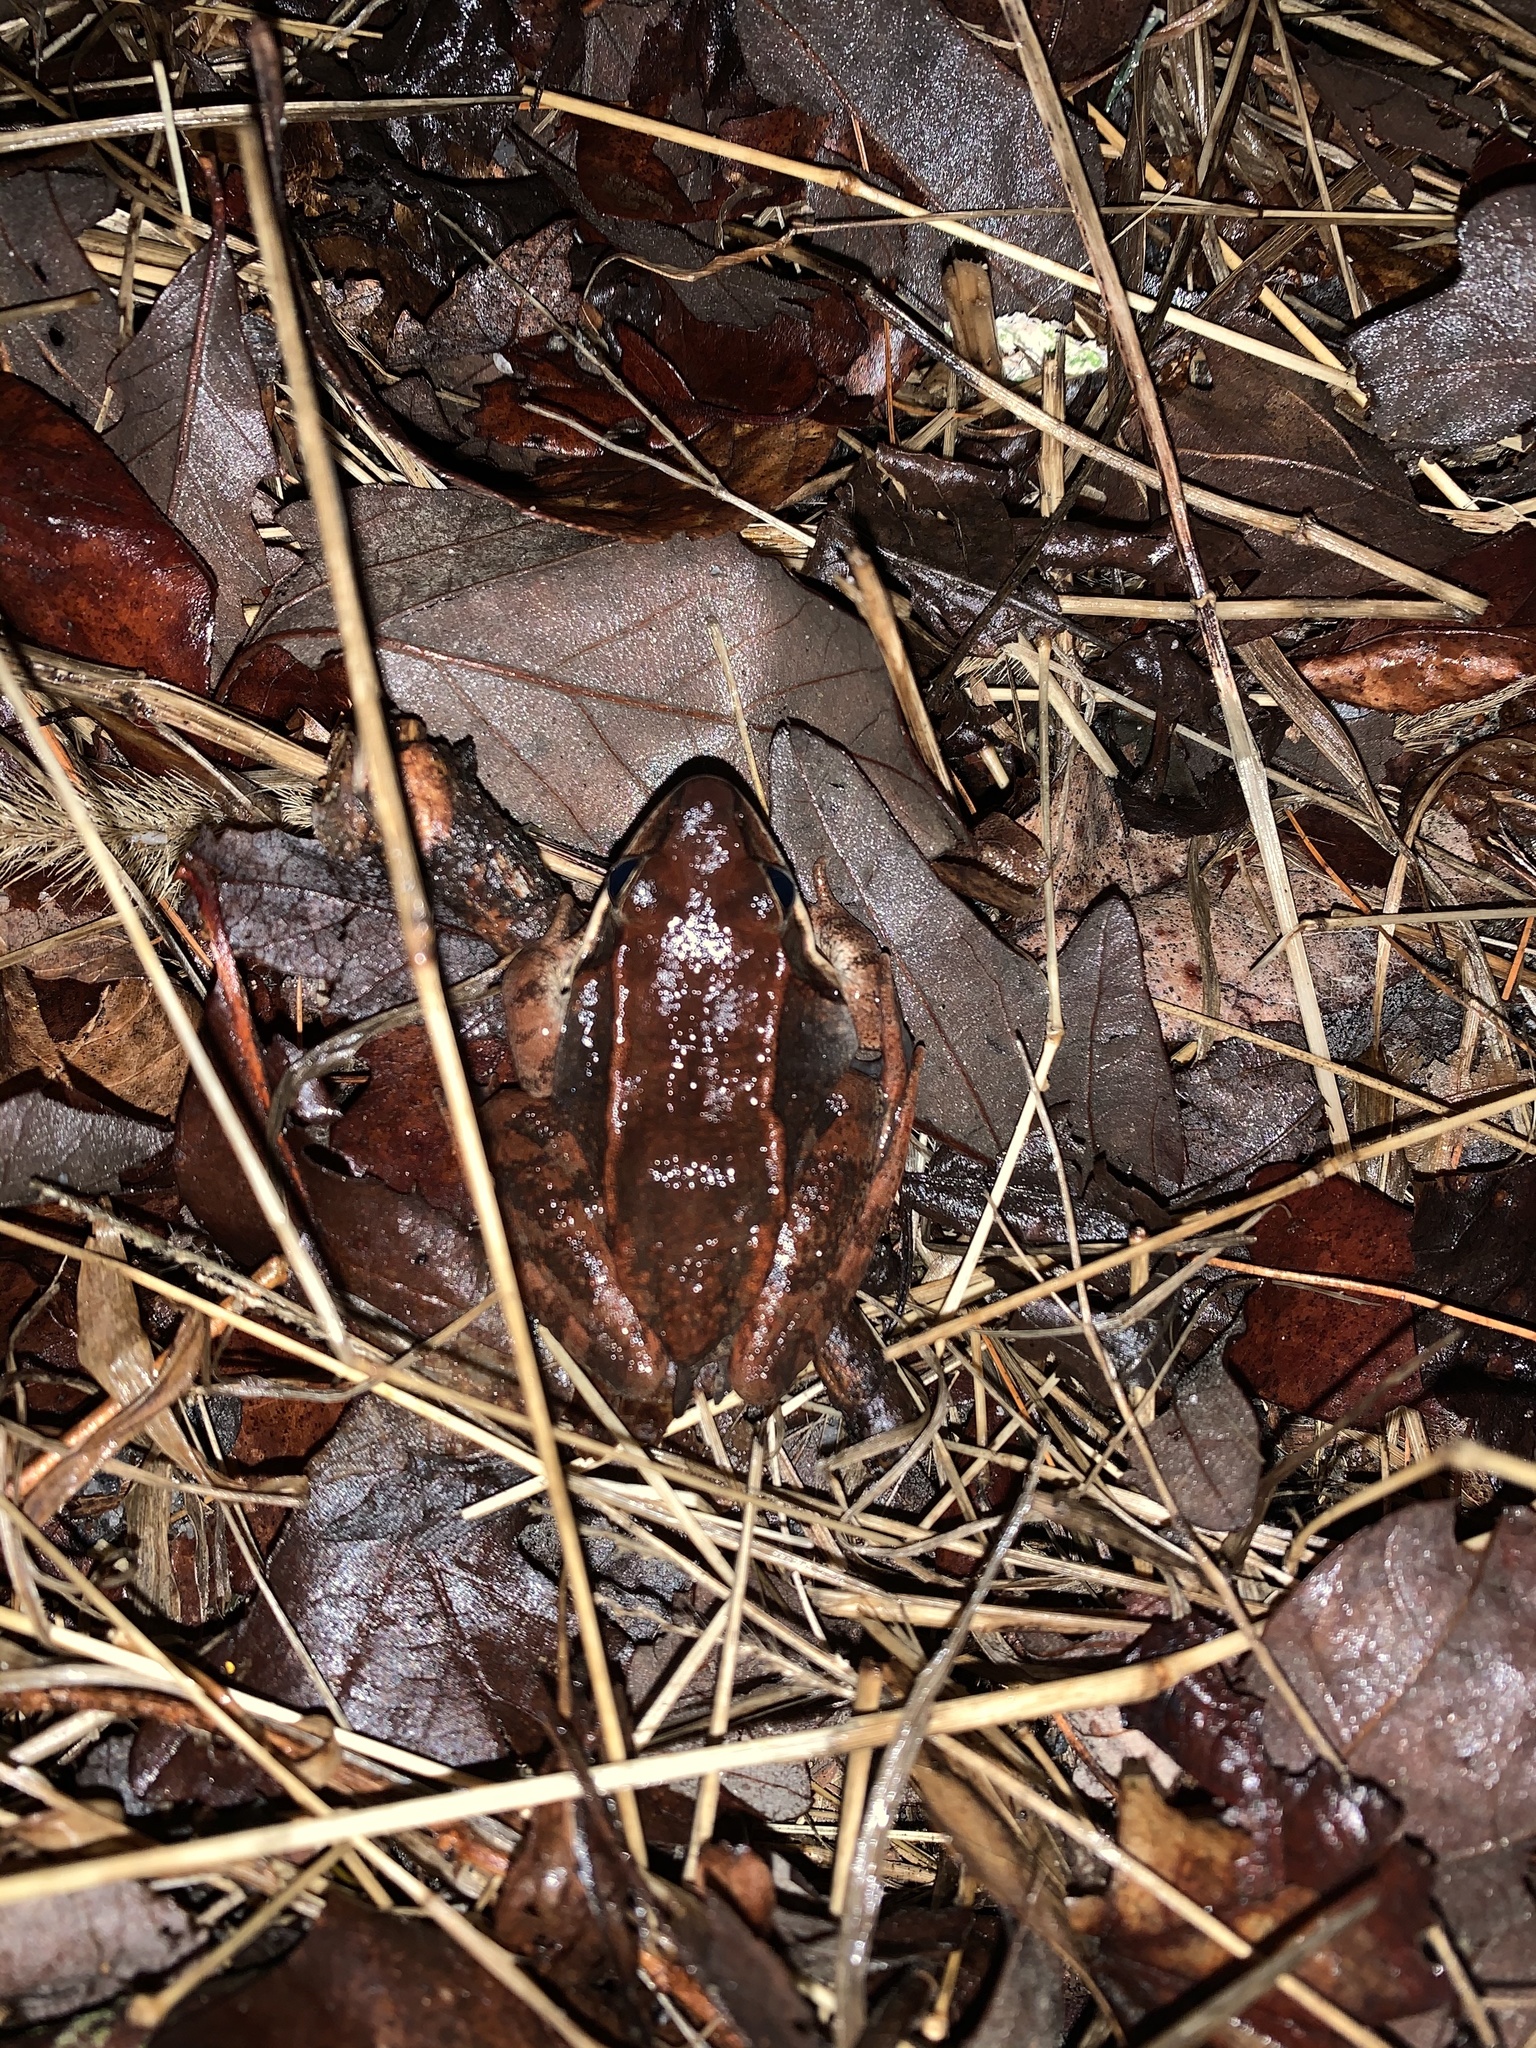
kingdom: Animalia
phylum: Chordata
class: Amphibia
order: Anura
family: Ranidae
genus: Lithobates
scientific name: Lithobates sylvaticus
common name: Wood frog
